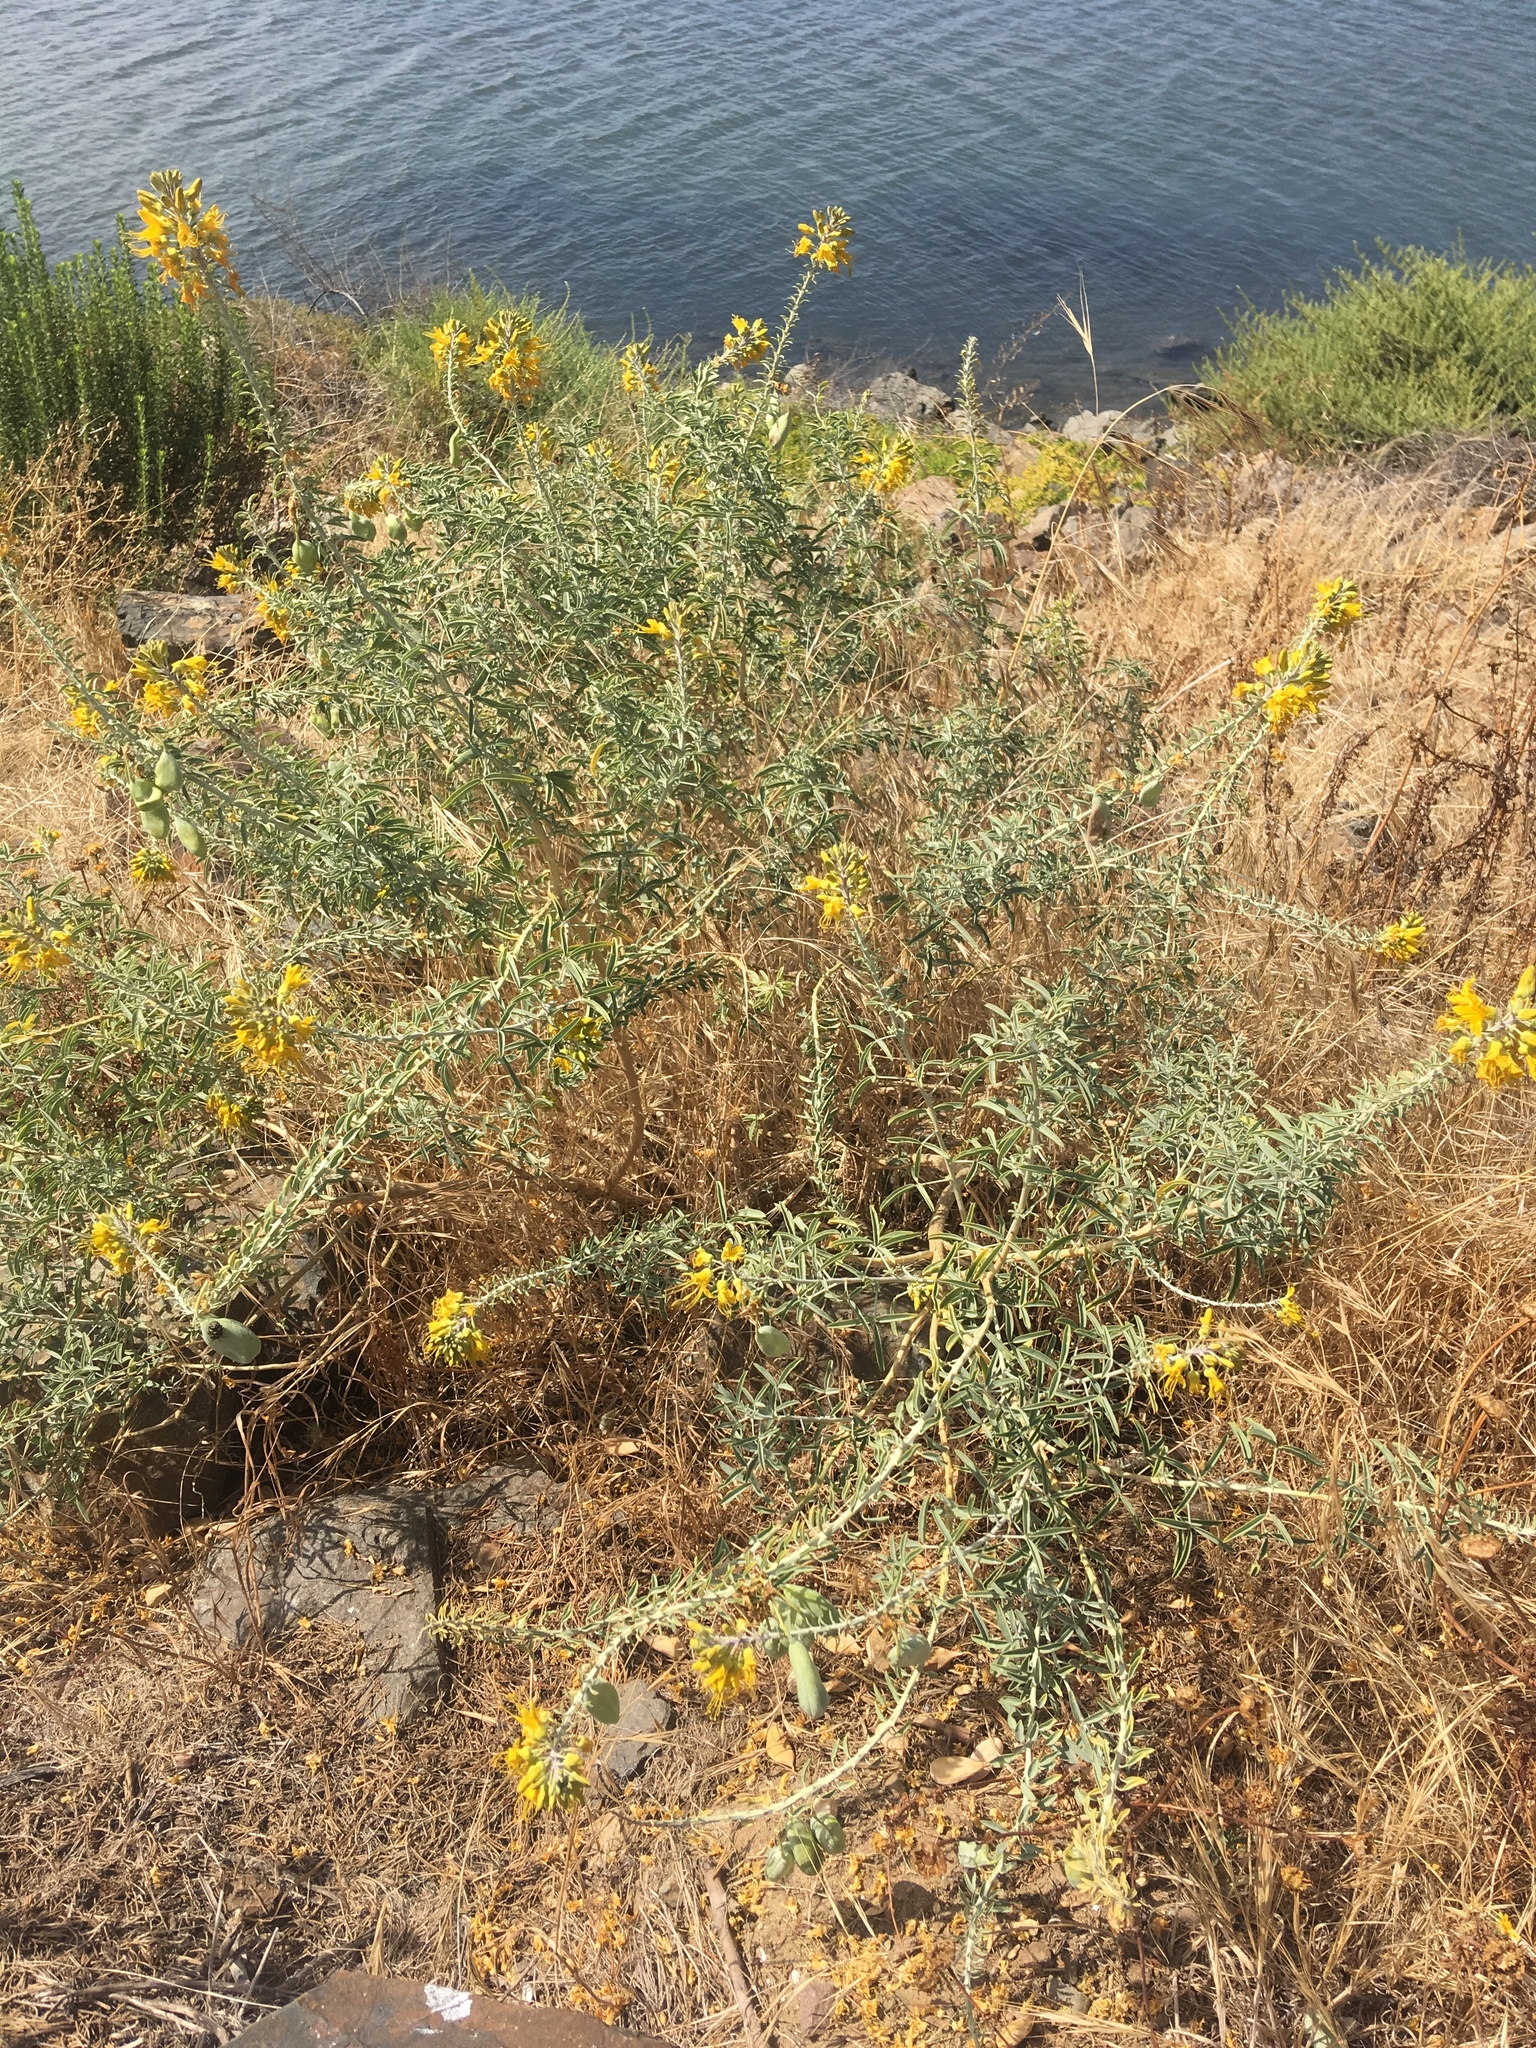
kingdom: Plantae
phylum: Tracheophyta
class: Magnoliopsida
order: Brassicales
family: Cleomaceae
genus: Cleomella
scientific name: Cleomella arborea
